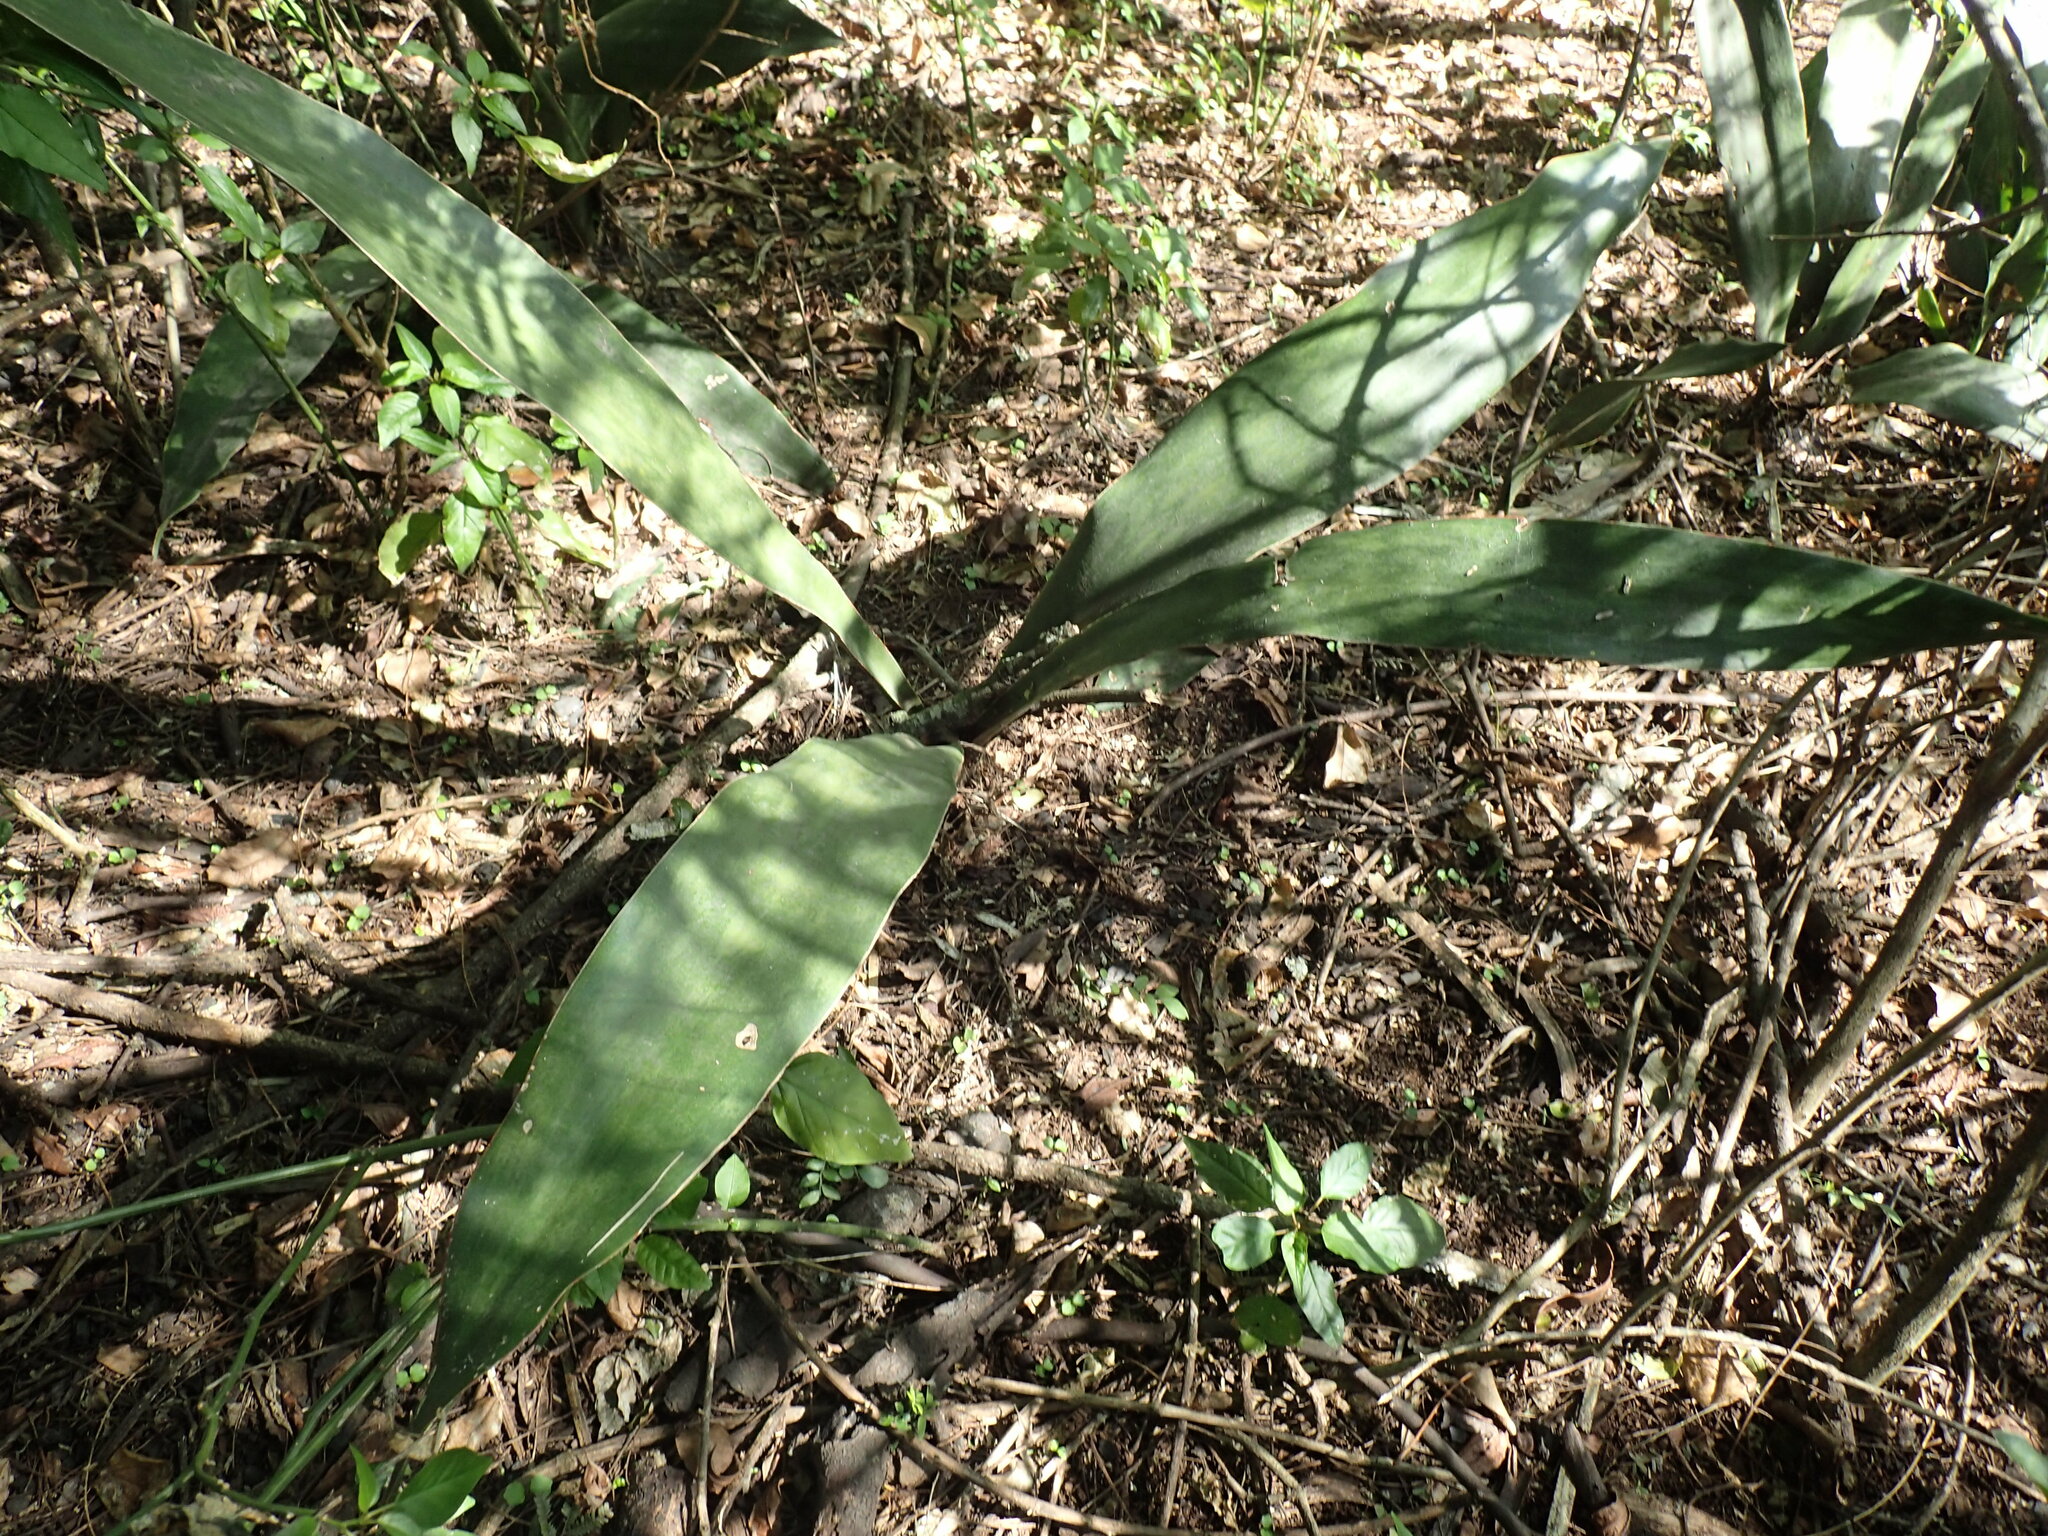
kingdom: Plantae
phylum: Tracheophyta
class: Liliopsida
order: Asparagales
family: Asparagaceae
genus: Dracaena
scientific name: Dracaena hyacinthoides
